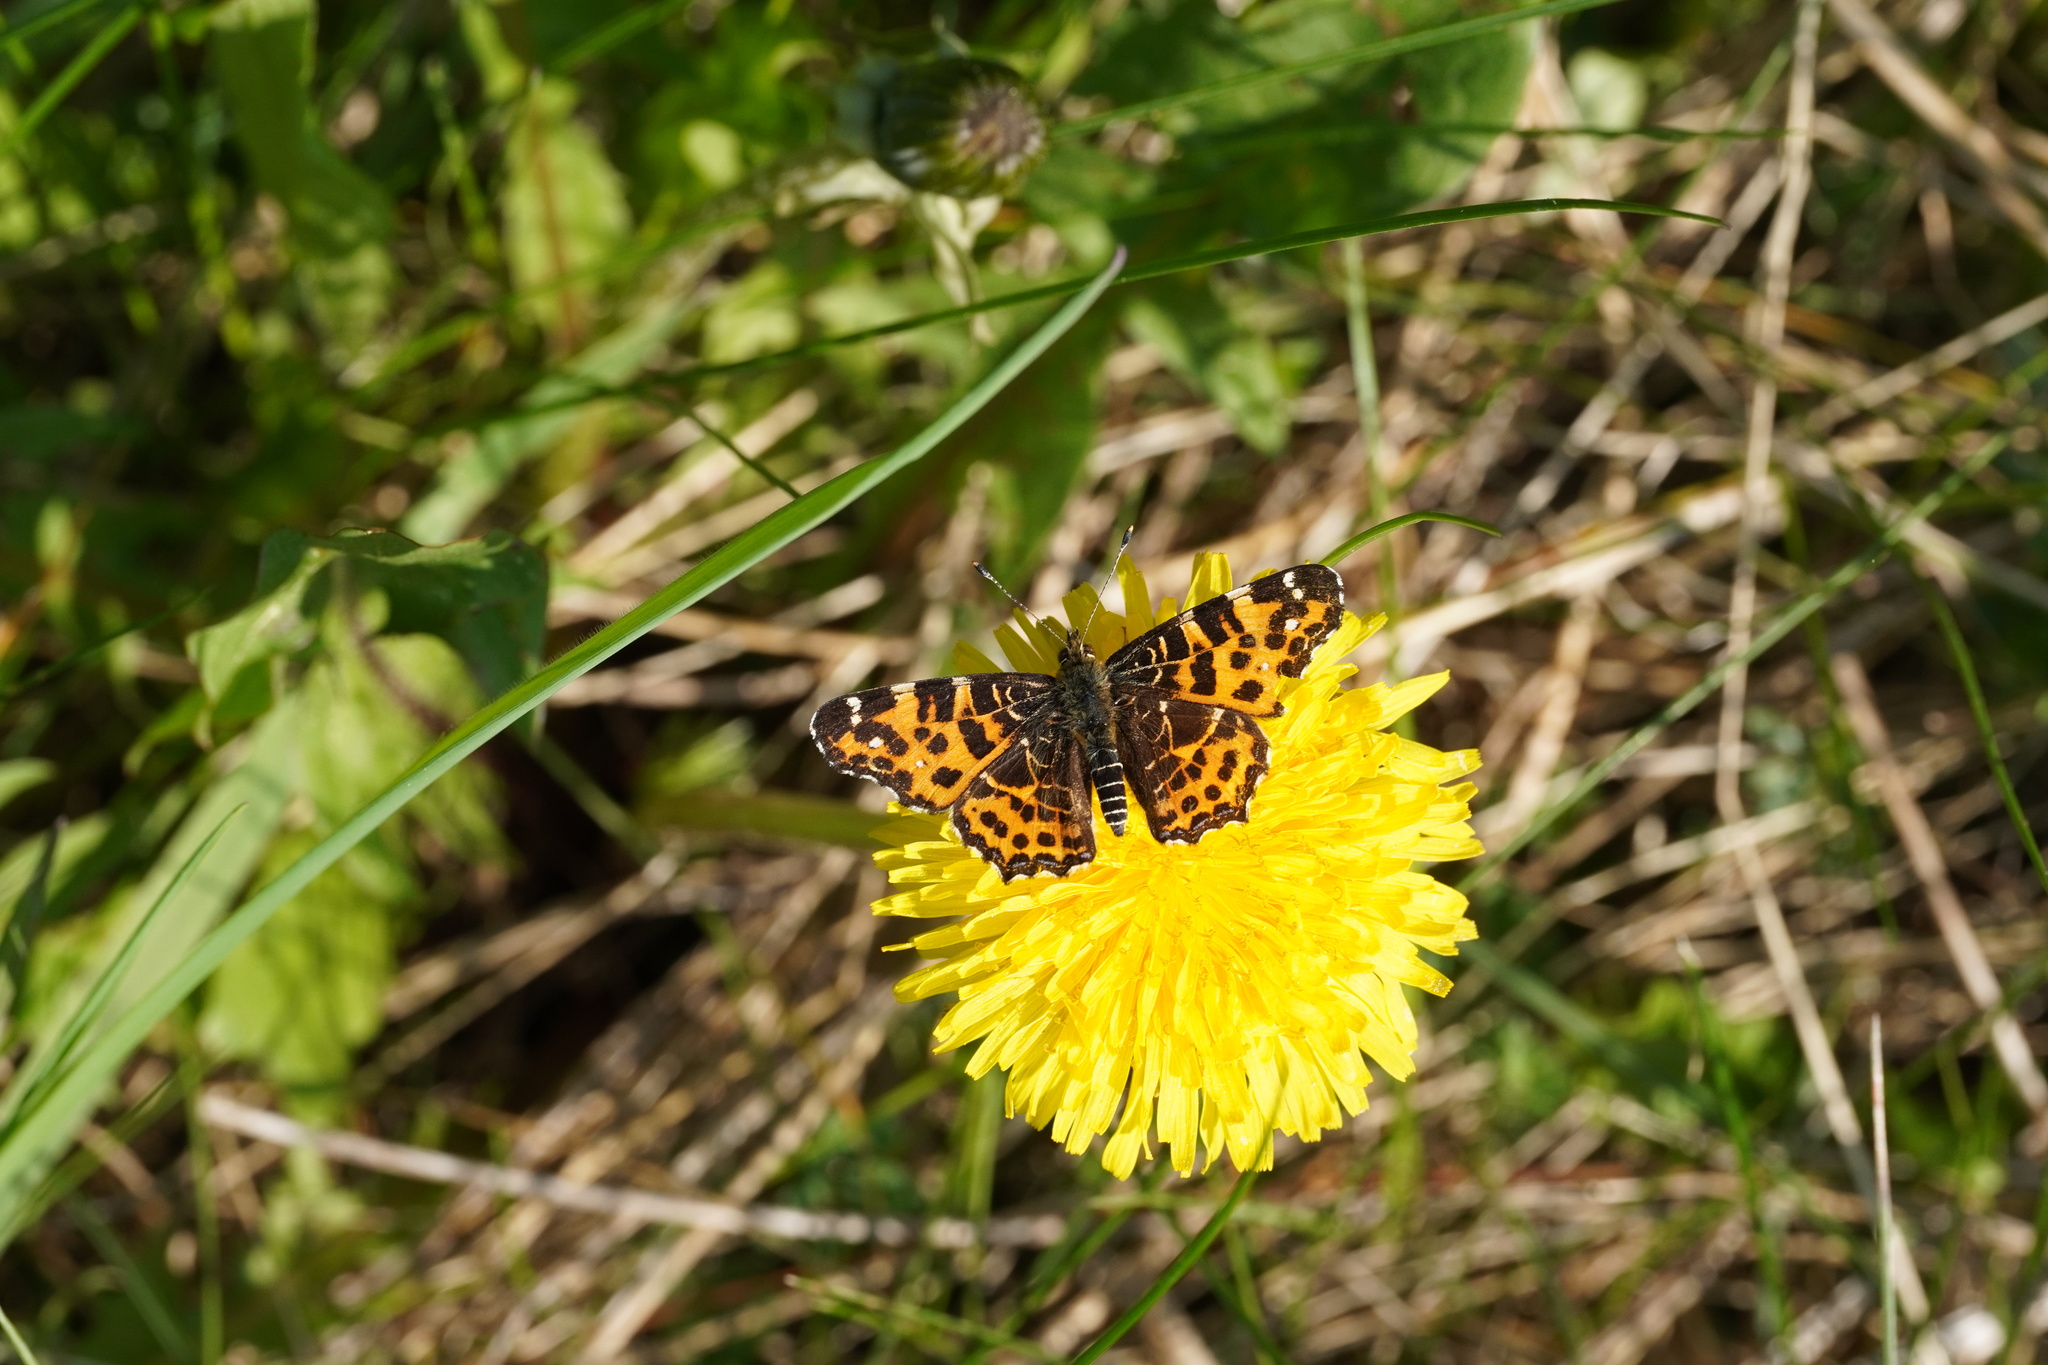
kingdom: Animalia
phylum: Arthropoda
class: Insecta
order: Lepidoptera
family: Nymphalidae
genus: Araschnia
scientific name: Araschnia levana
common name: Map butterfly
